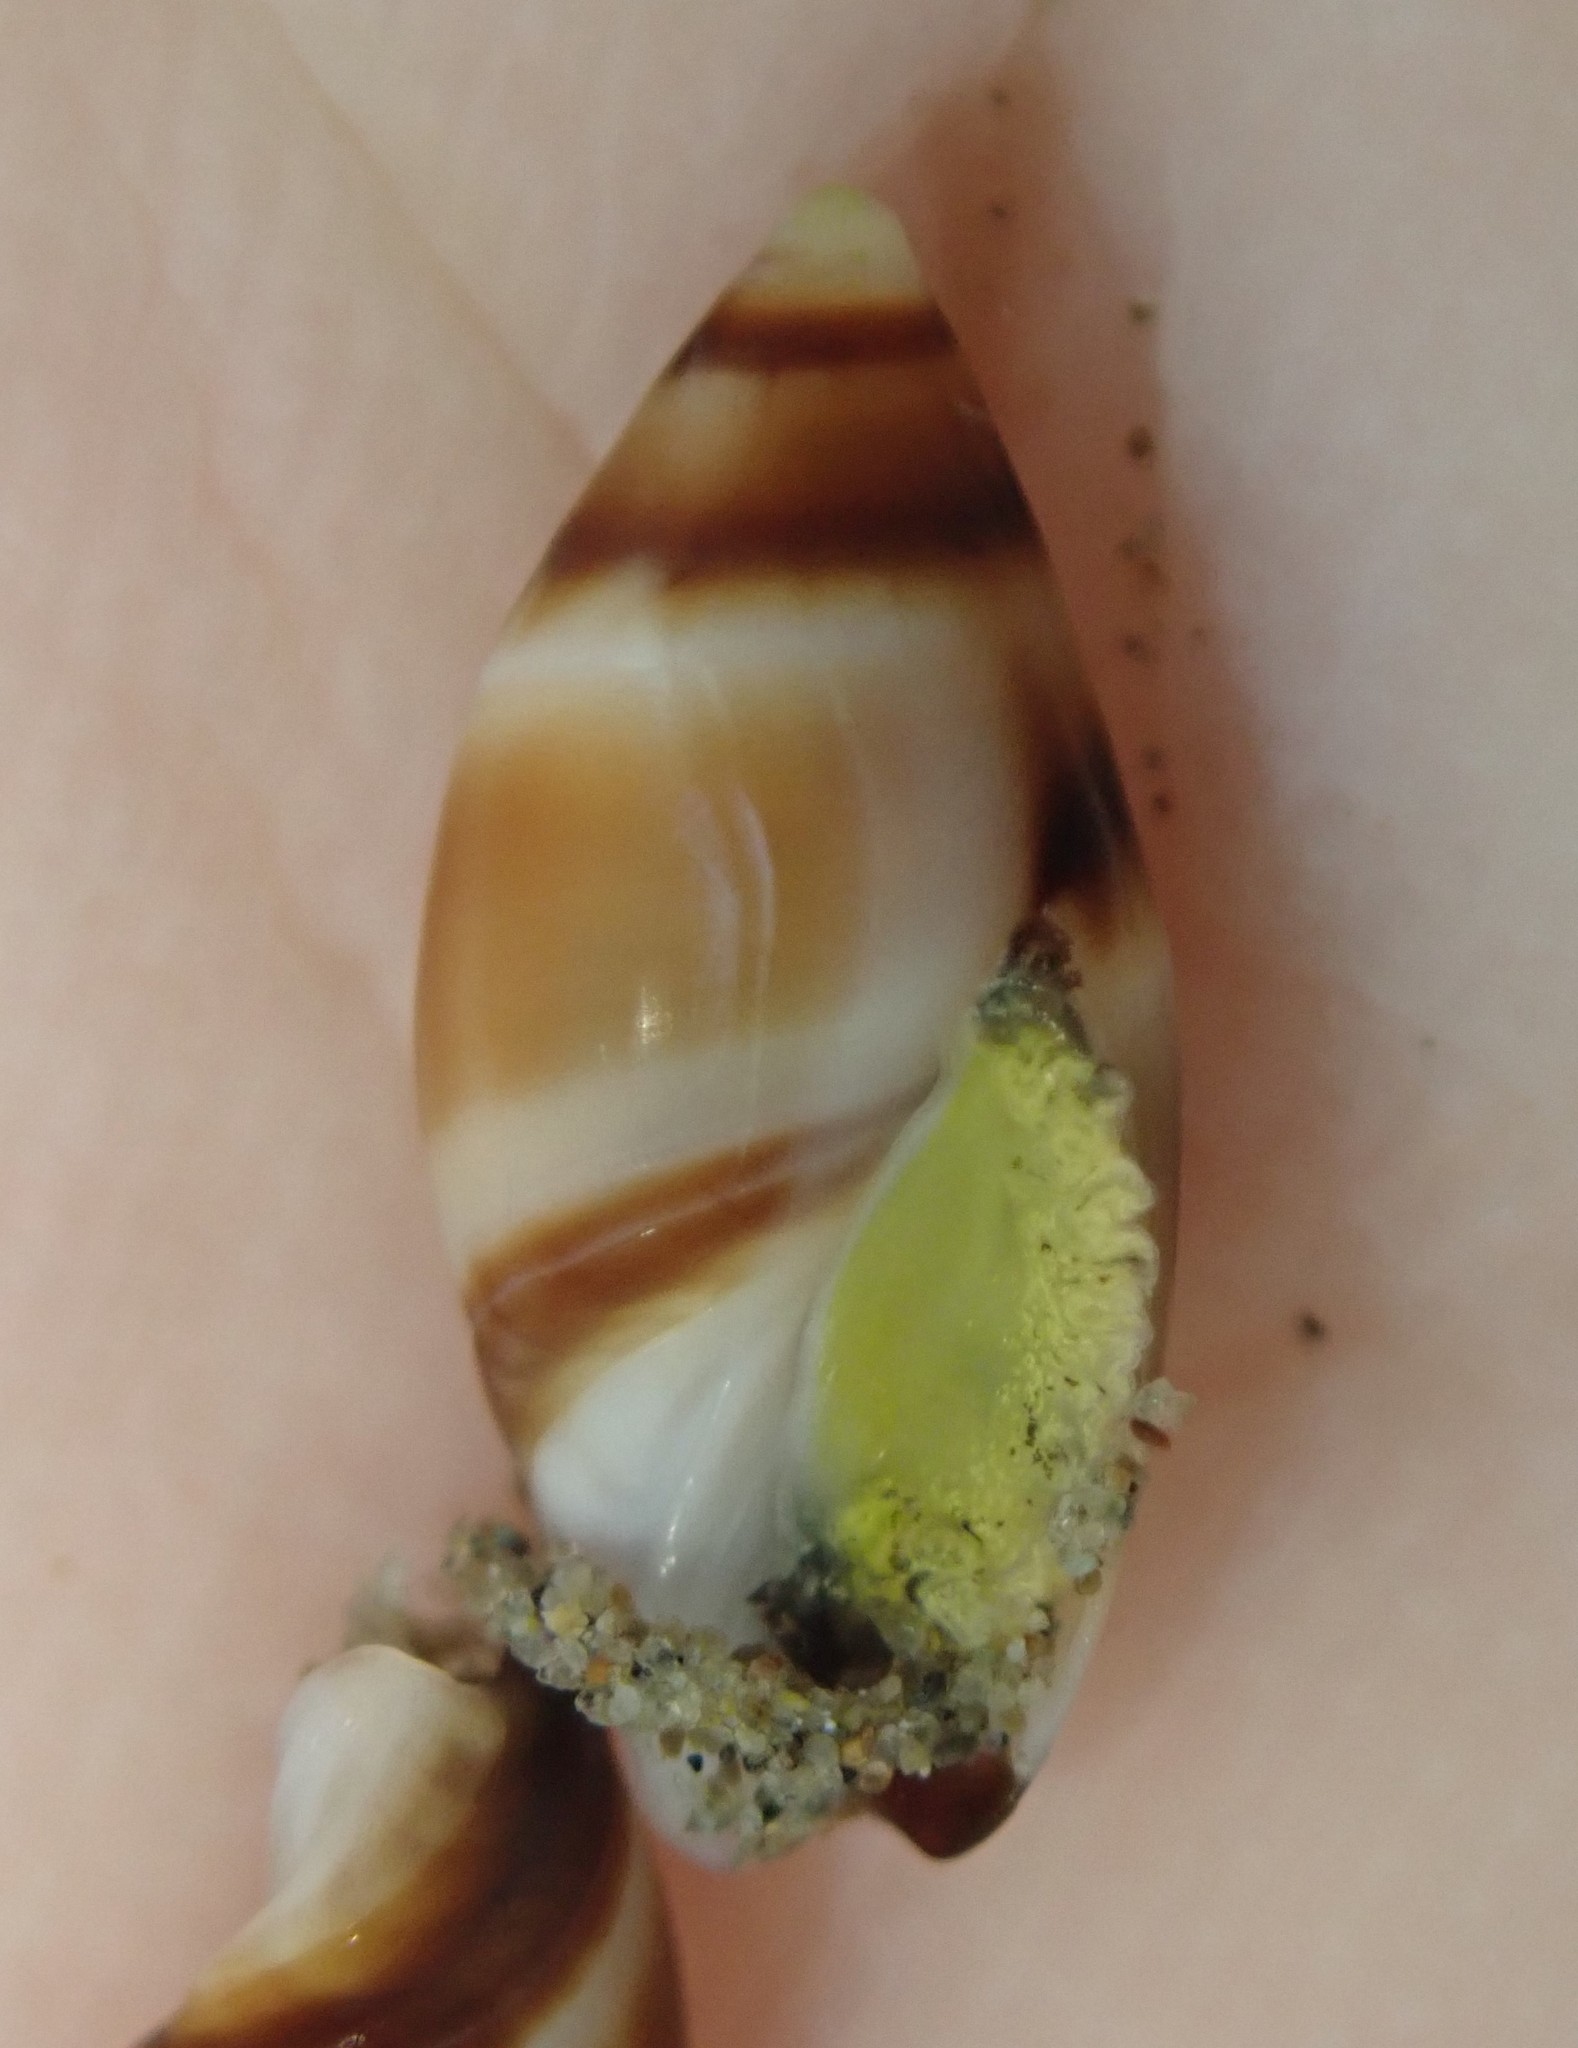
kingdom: Animalia
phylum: Mollusca
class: Gastropoda
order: Neogastropoda
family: Ancillariidae
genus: Amalda
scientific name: Amalda novaezelandiae
